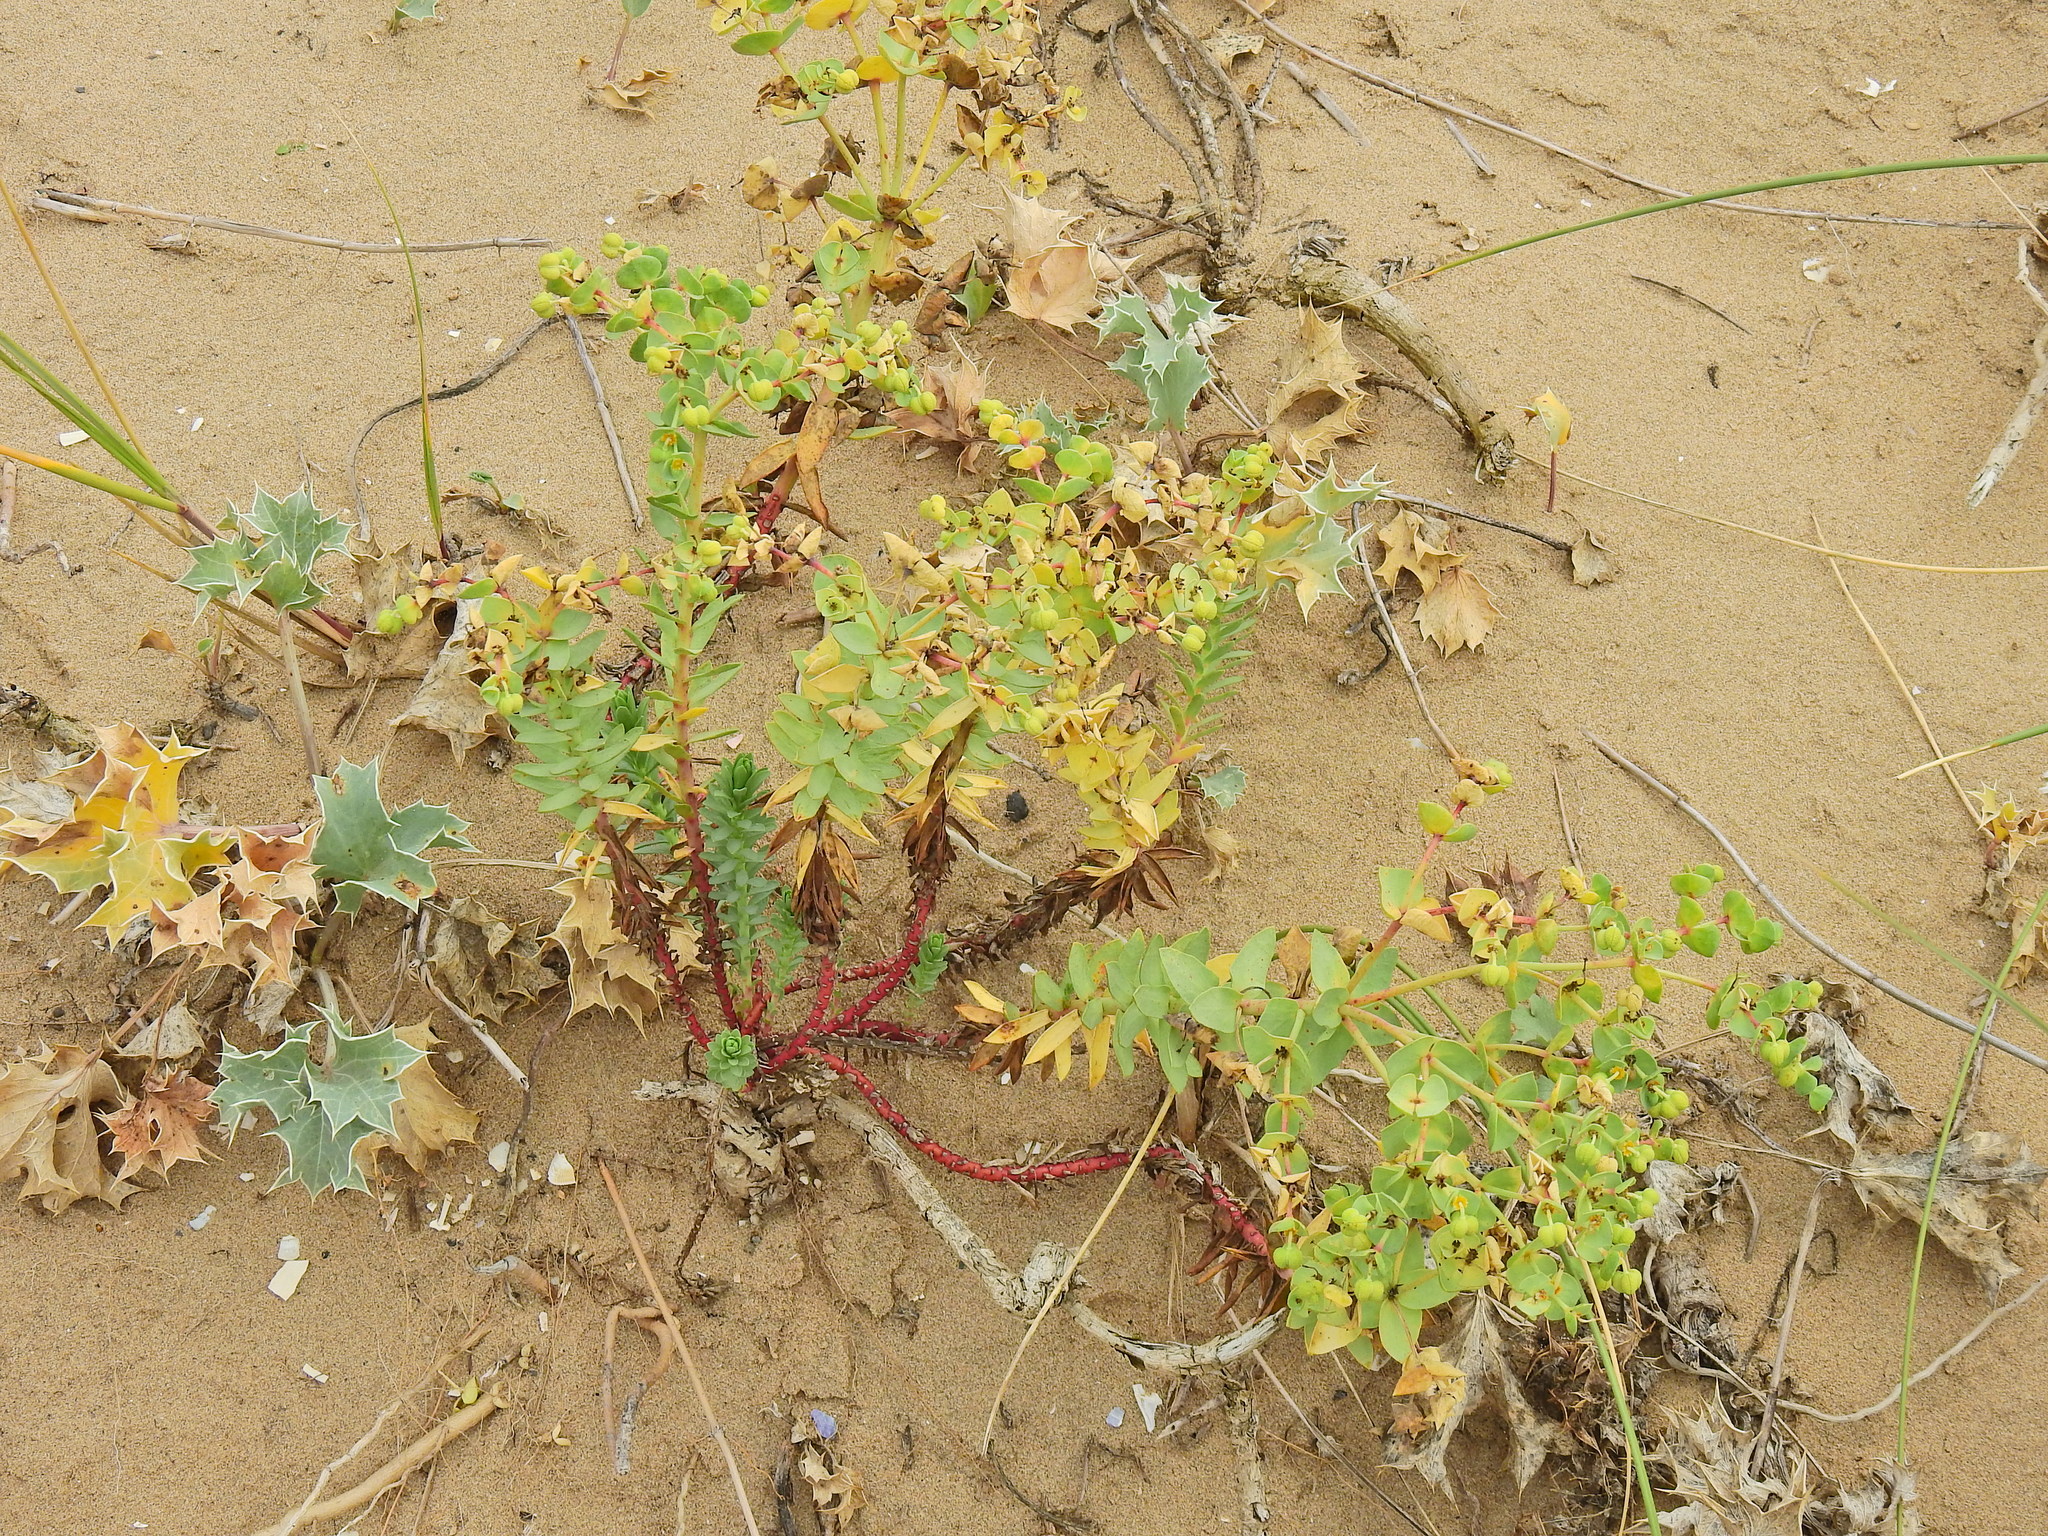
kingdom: Plantae
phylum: Tracheophyta
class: Magnoliopsida
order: Malpighiales
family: Euphorbiaceae
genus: Euphorbia
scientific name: Euphorbia paralias
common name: Sea spurge
